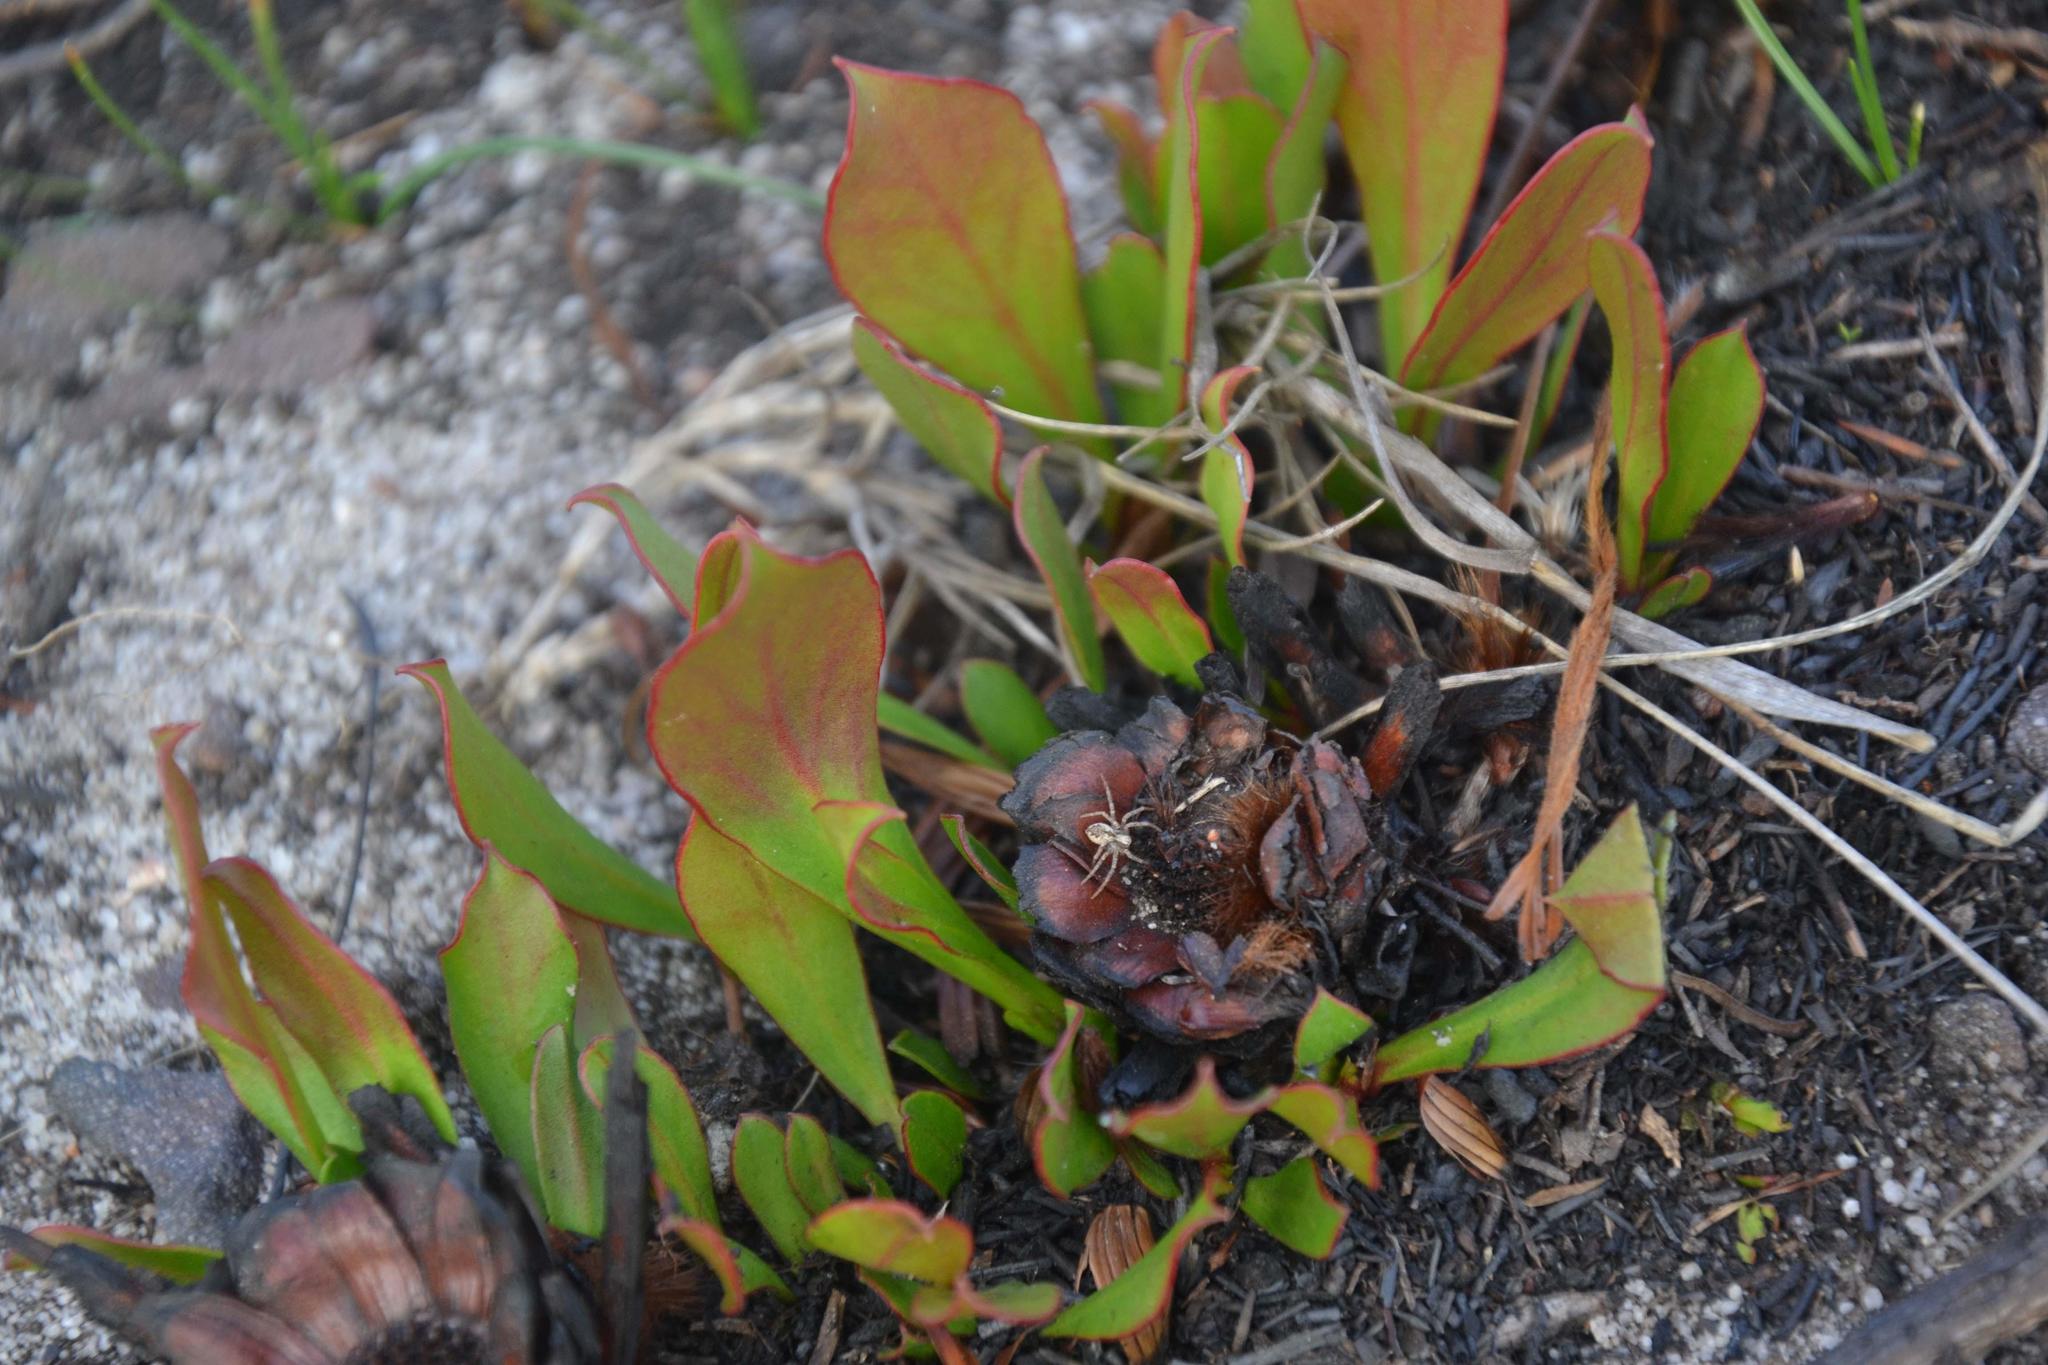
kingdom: Plantae
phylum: Tracheophyta
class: Magnoliopsida
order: Proteales
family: Proteaceae
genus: Protea
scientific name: Protea acaulos
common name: Common ground sugarbush
